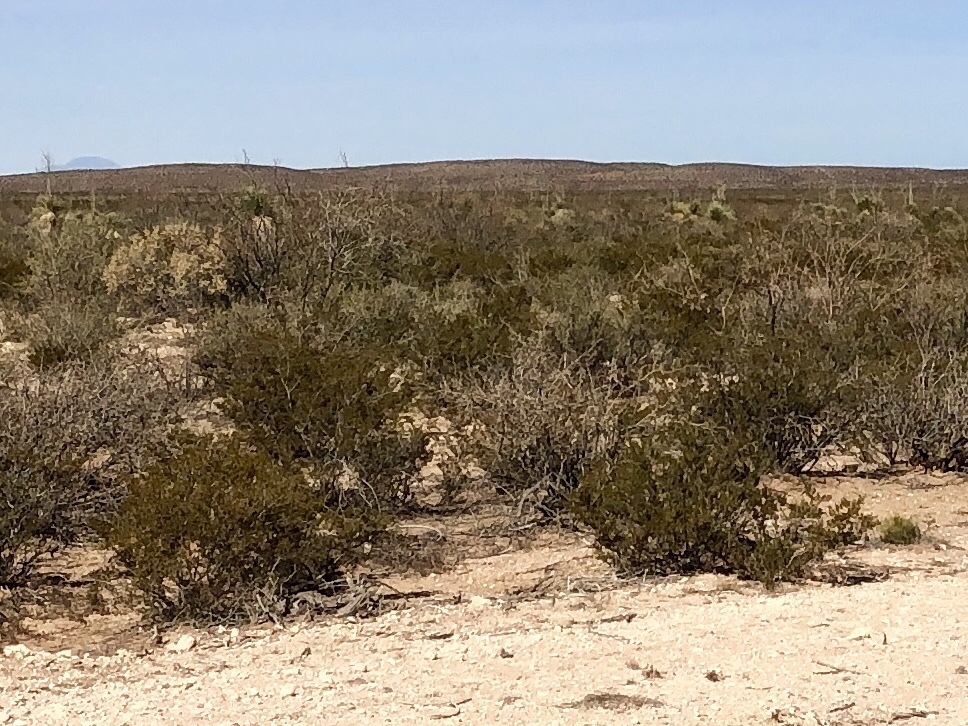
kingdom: Plantae
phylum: Tracheophyta
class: Magnoliopsida
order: Zygophyllales
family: Zygophyllaceae
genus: Larrea
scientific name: Larrea tridentata
